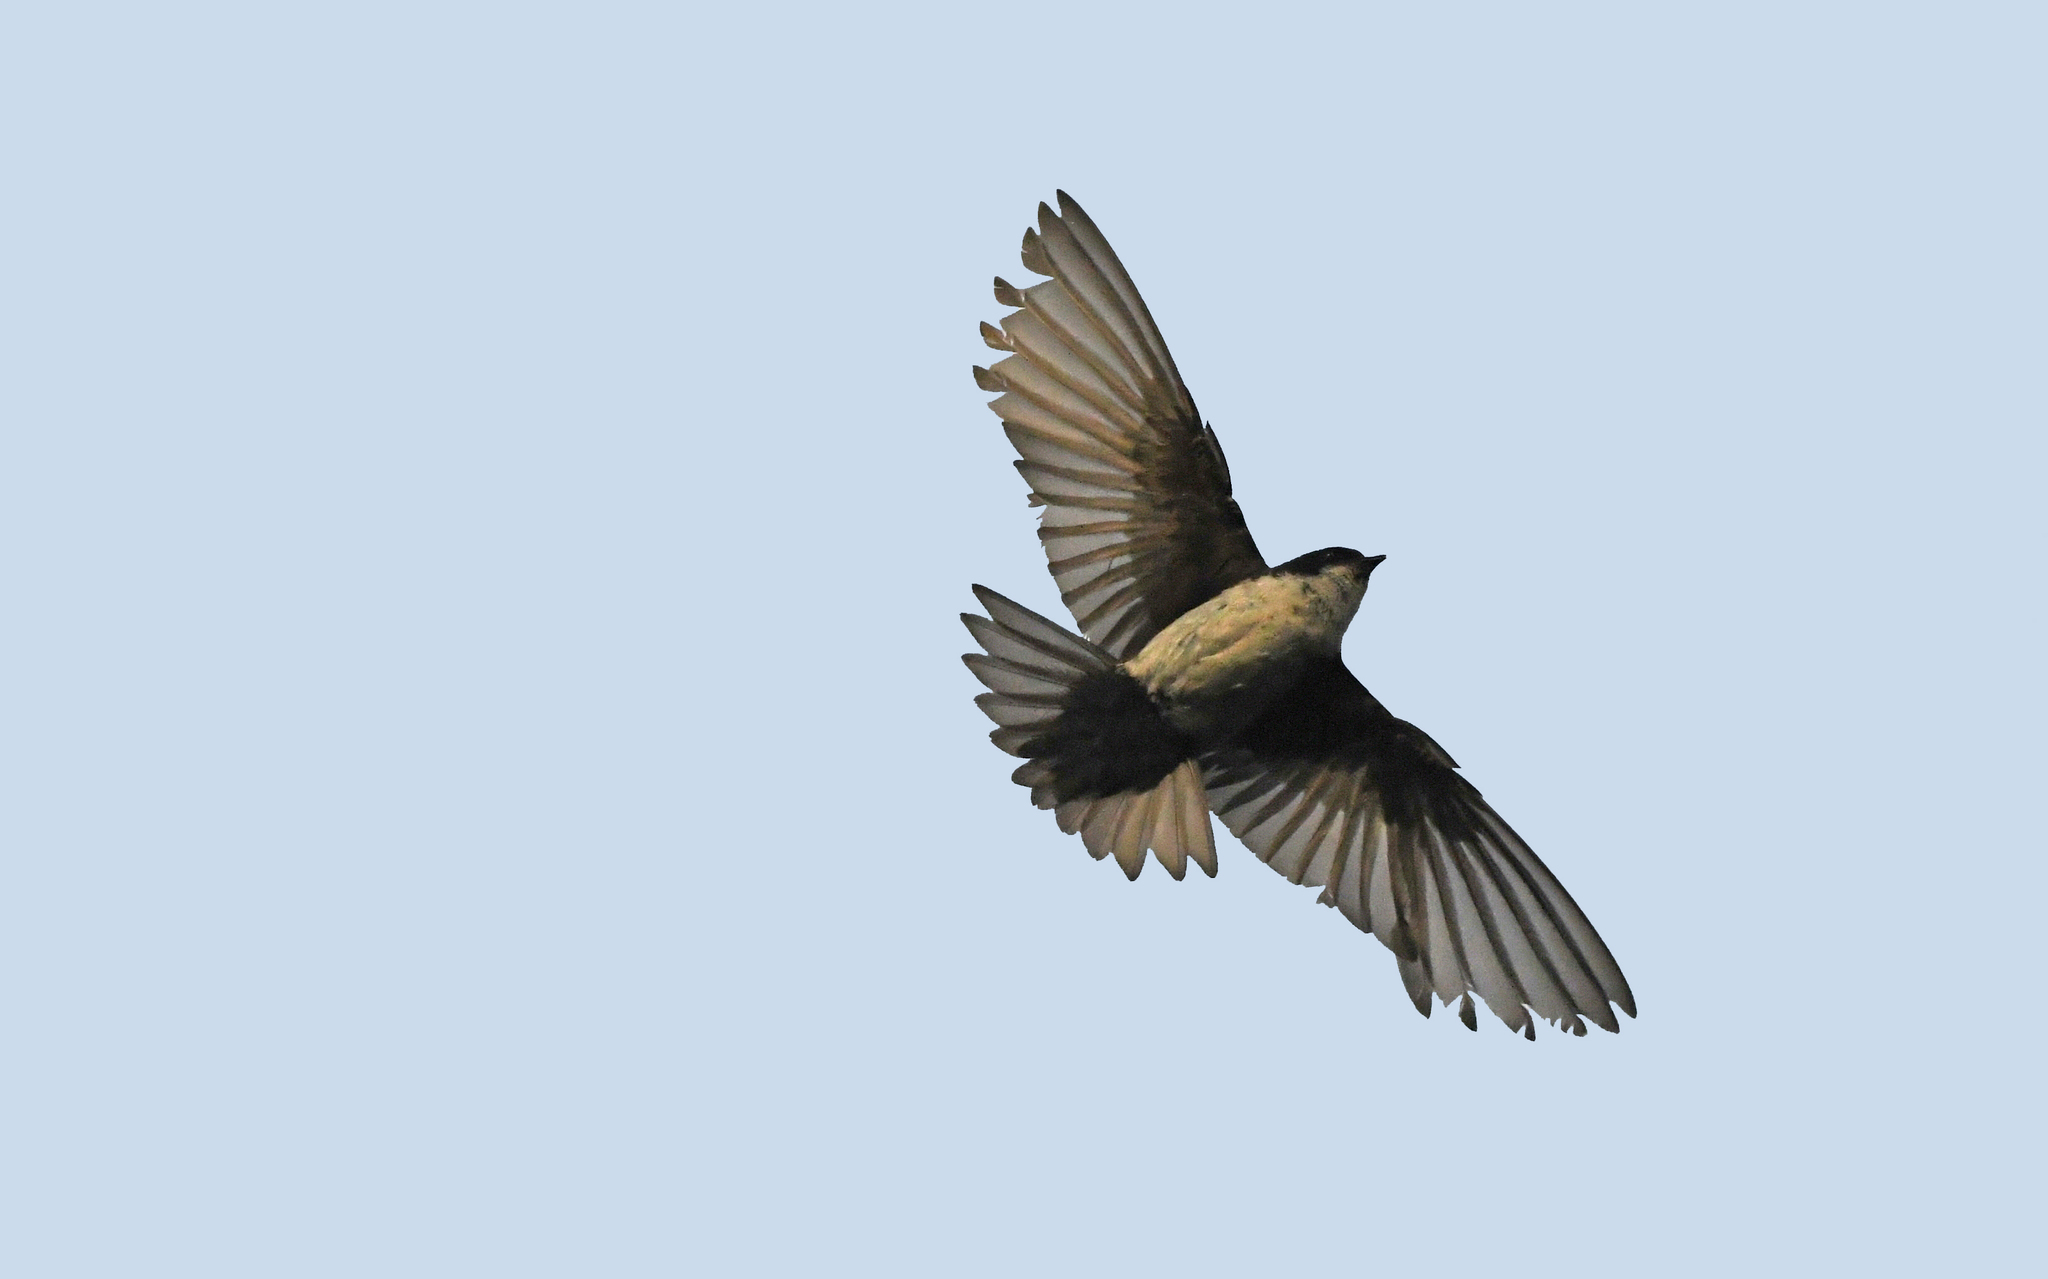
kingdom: Animalia
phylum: Chordata
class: Aves
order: Passeriformes
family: Hirundinidae
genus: Notiochelidon
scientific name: Notiochelidon cyanoleuca
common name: Blue-and-white swallow
